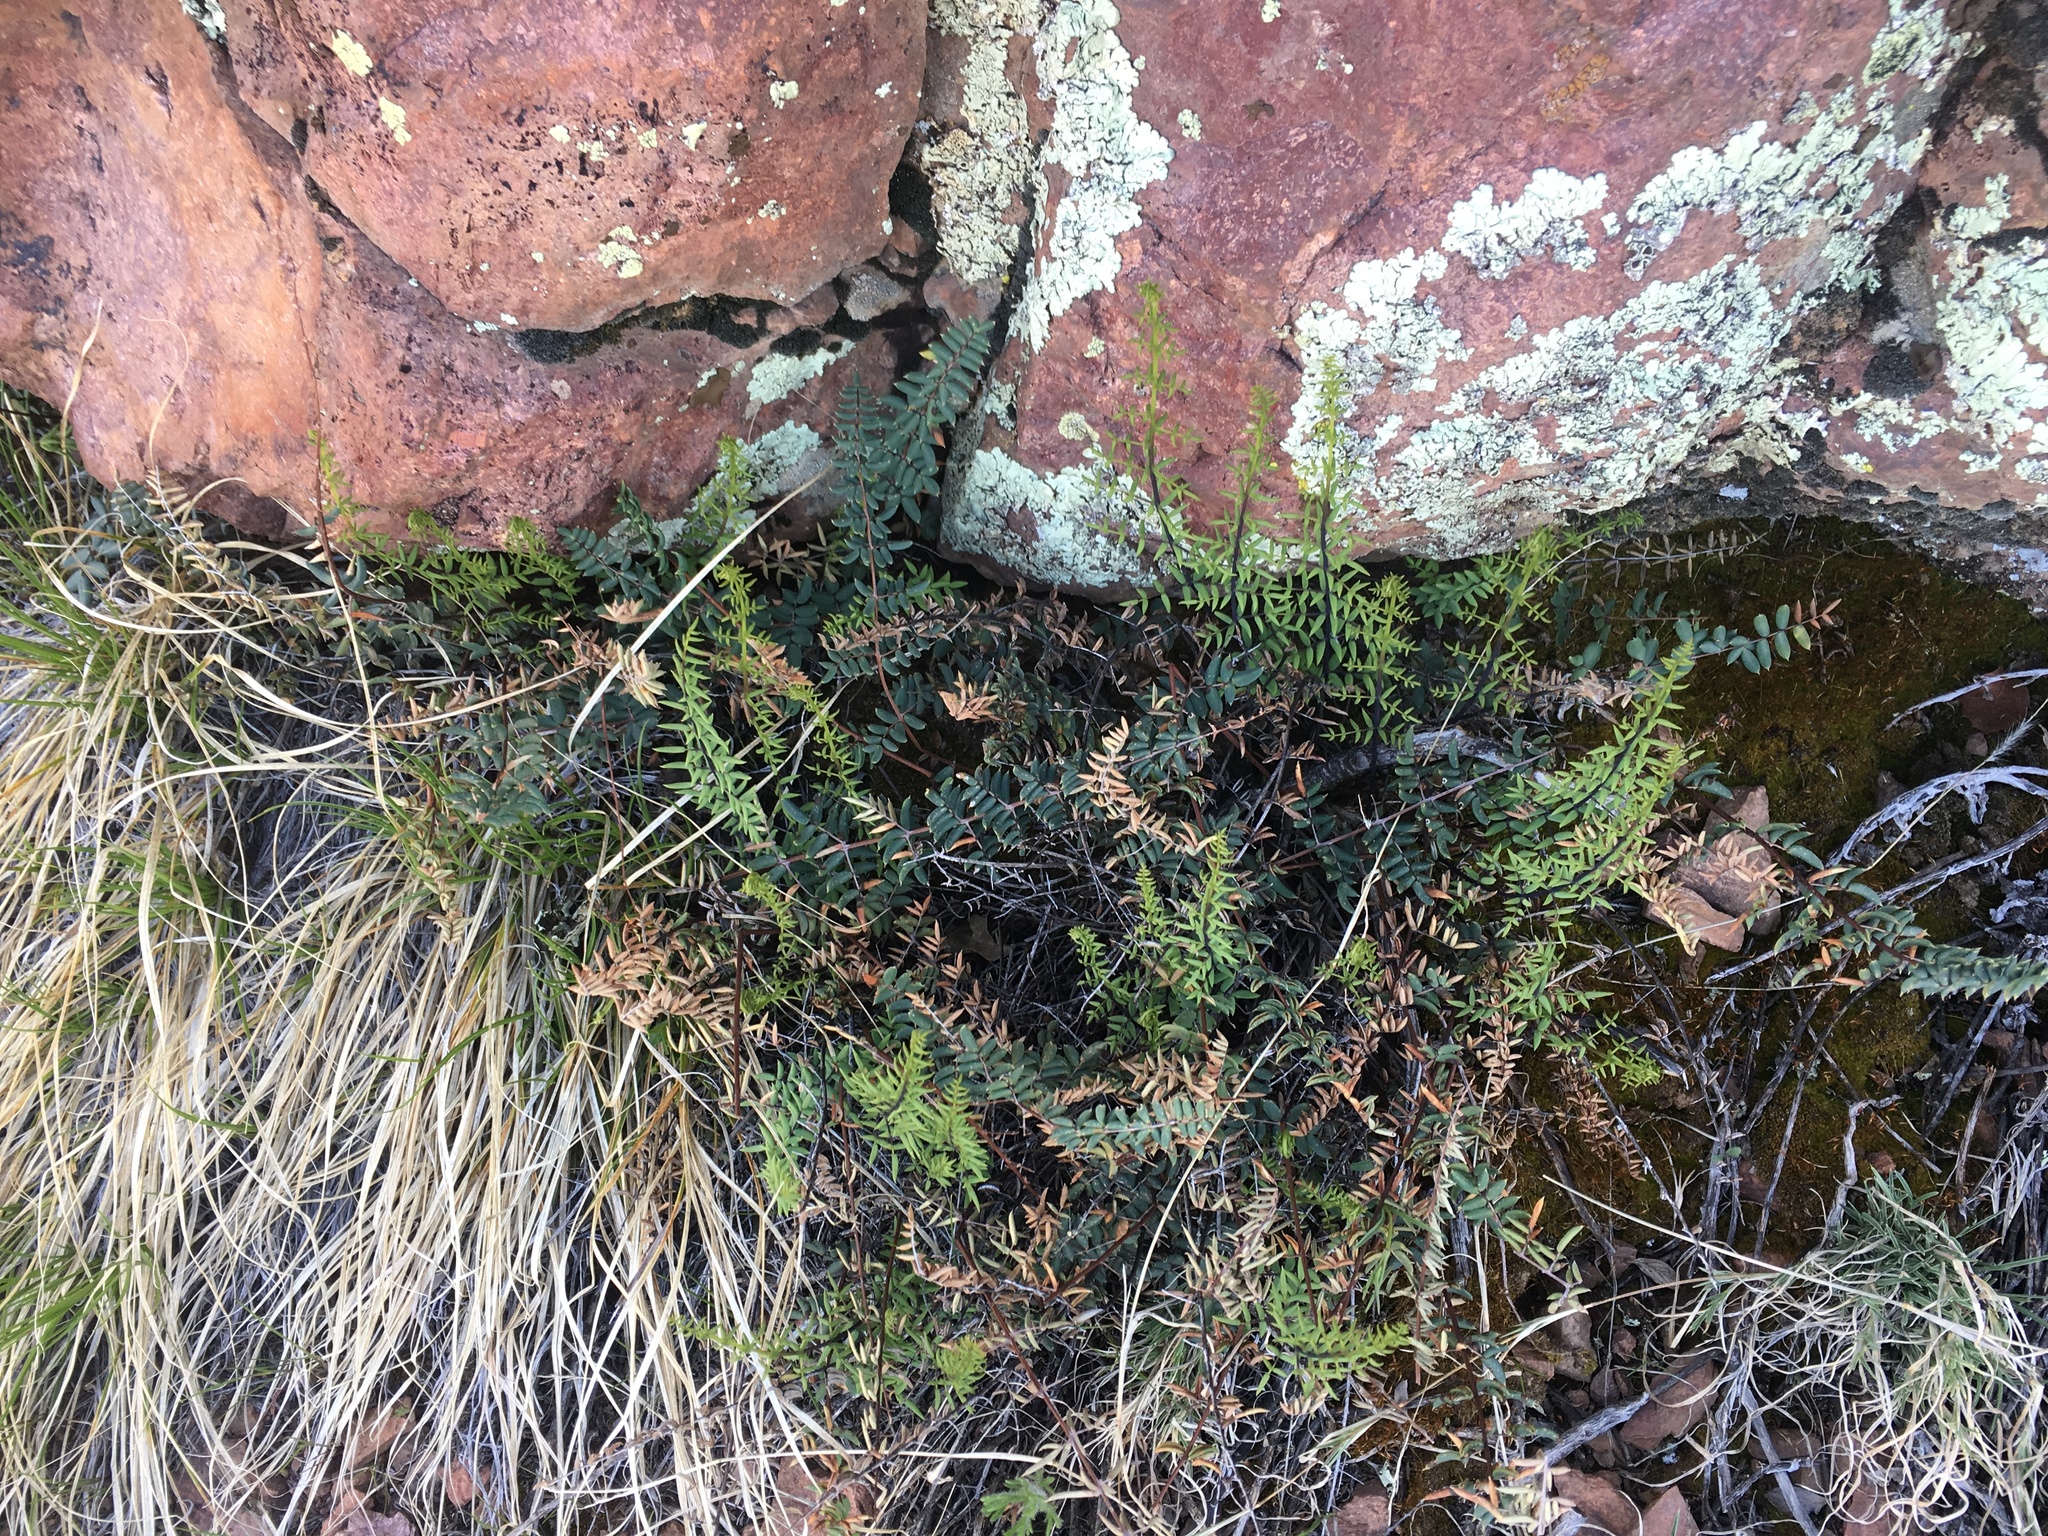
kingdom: Plantae
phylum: Tracheophyta
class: Polypodiopsida
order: Polypodiales
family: Pteridaceae
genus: Pellaea
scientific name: Pellaea truncata
